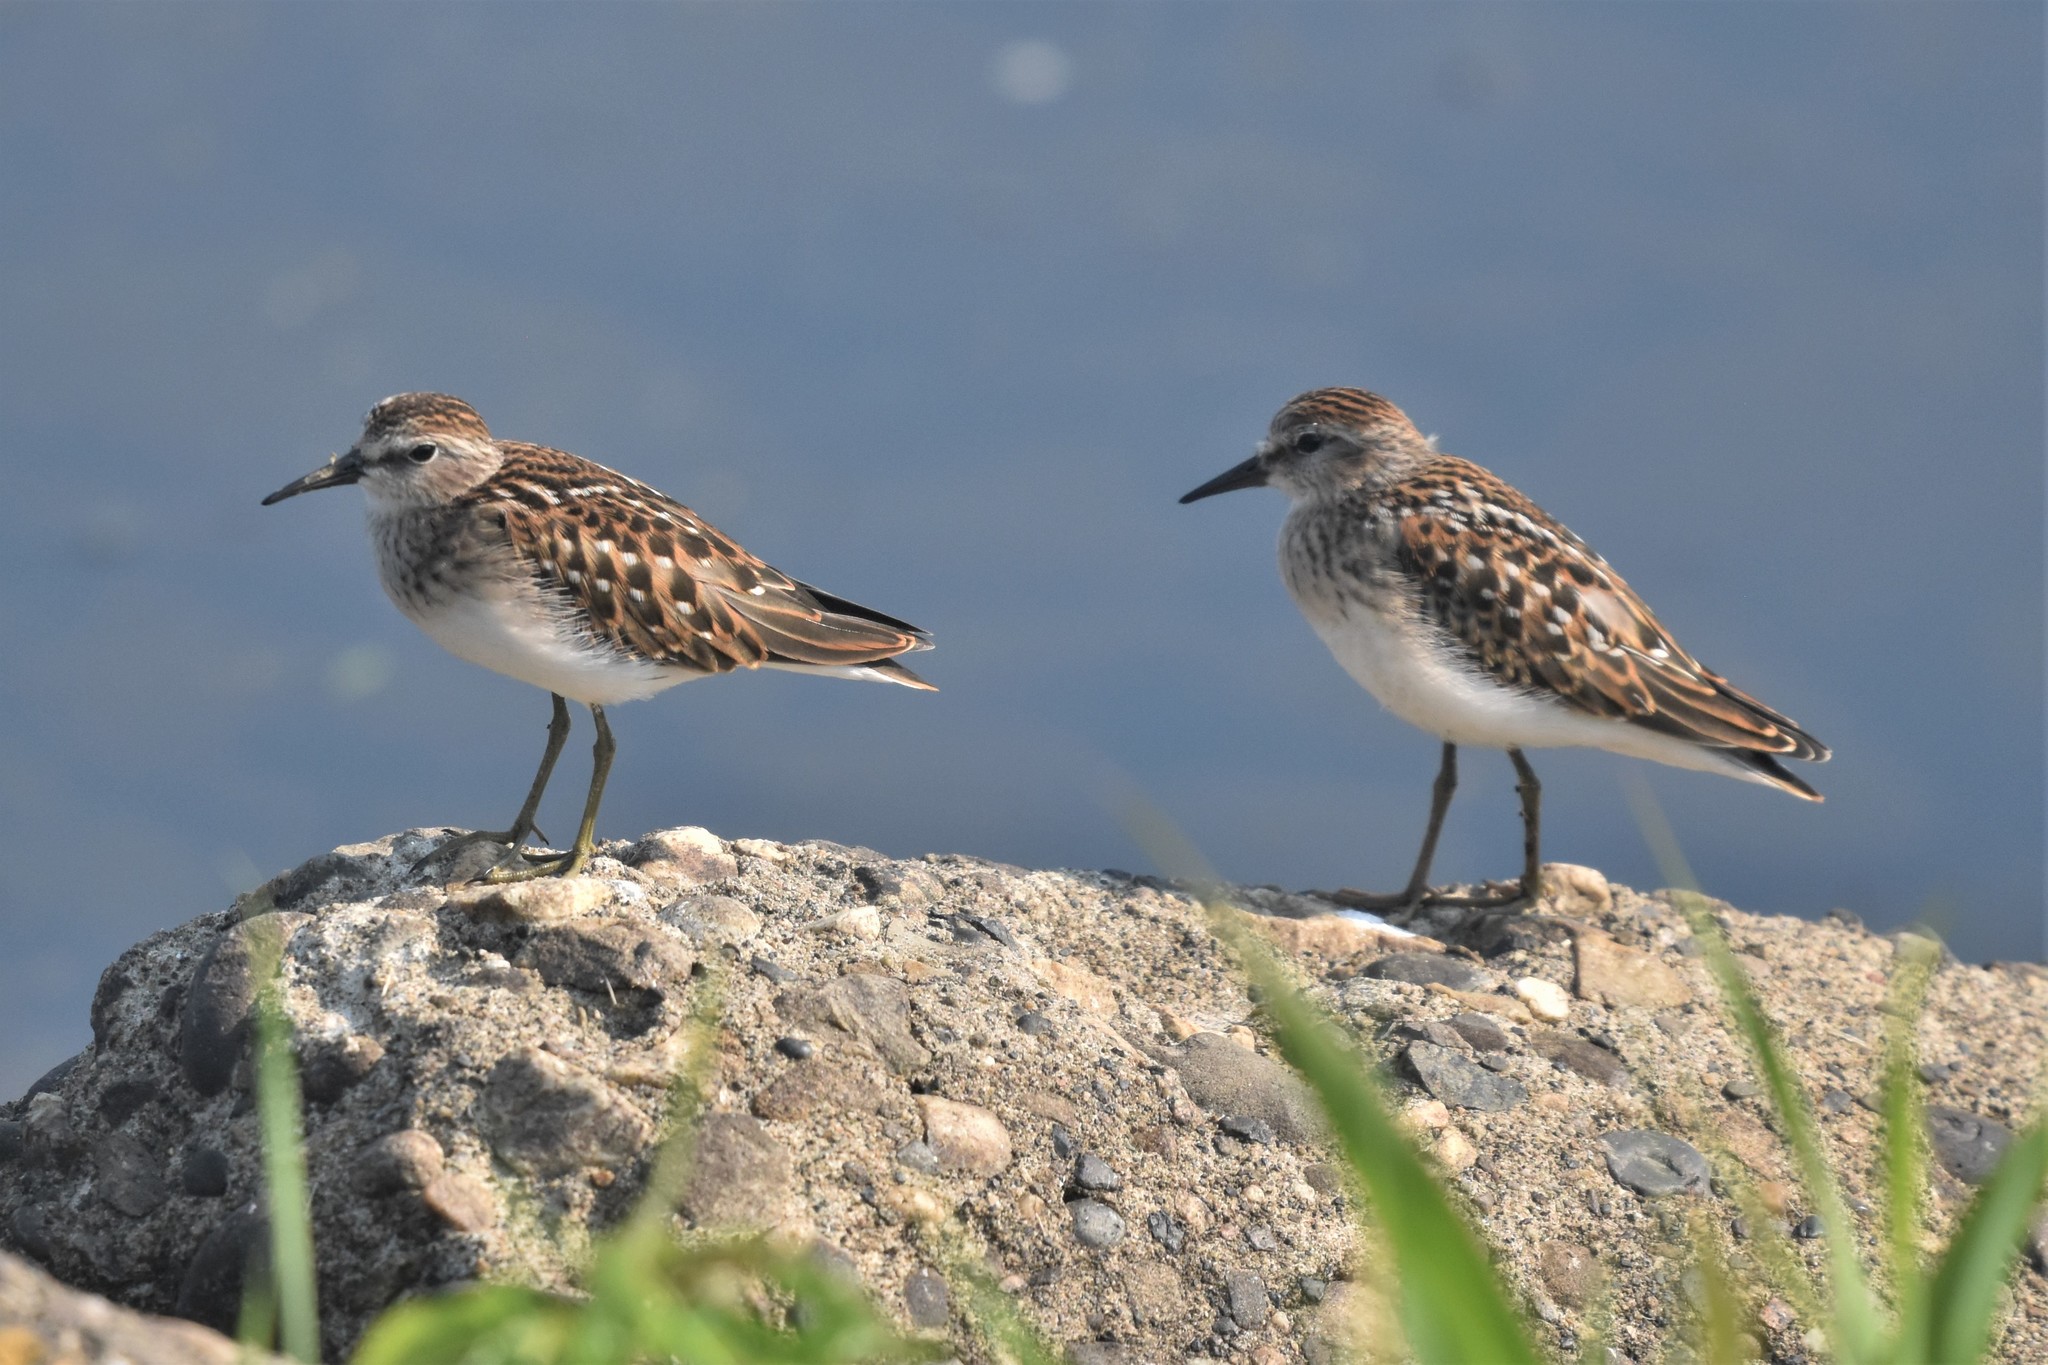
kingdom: Animalia
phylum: Chordata
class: Aves
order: Charadriiformes
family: Scolopacidae
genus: Calidris
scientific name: Calidris minutilla
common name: Least sandpiper
